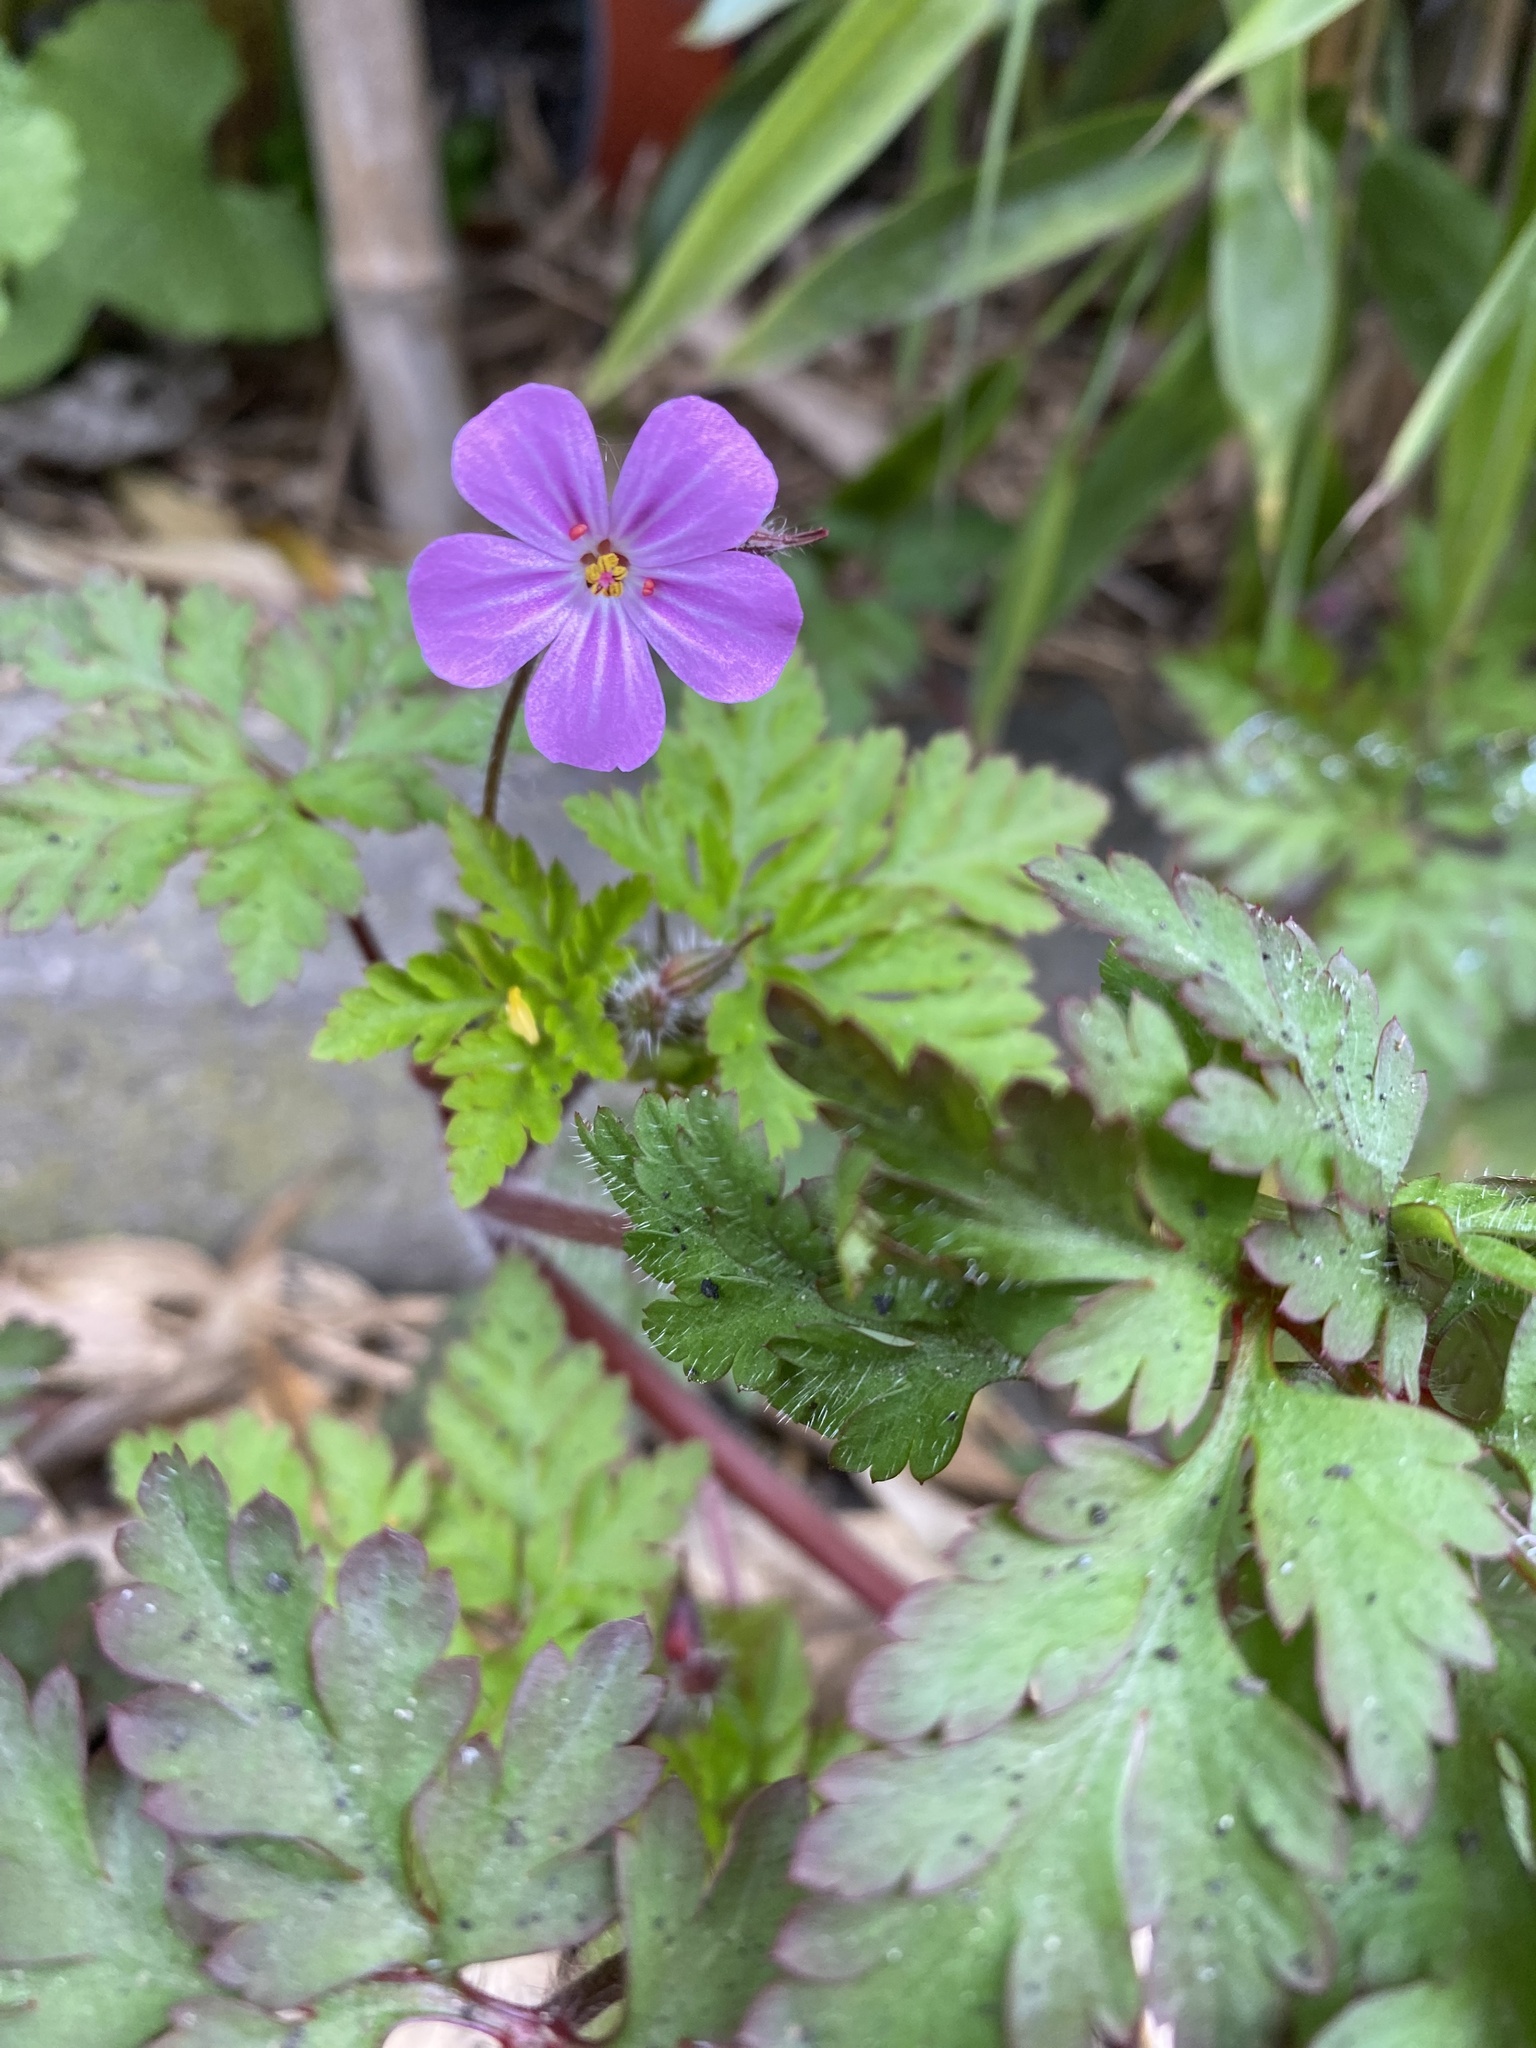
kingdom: Plantae
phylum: Tracheophyta
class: Magnoliopsida
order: Geraniales
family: Geraniaceae
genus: Geranium
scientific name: Geranium robertianum
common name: Herb-robert
